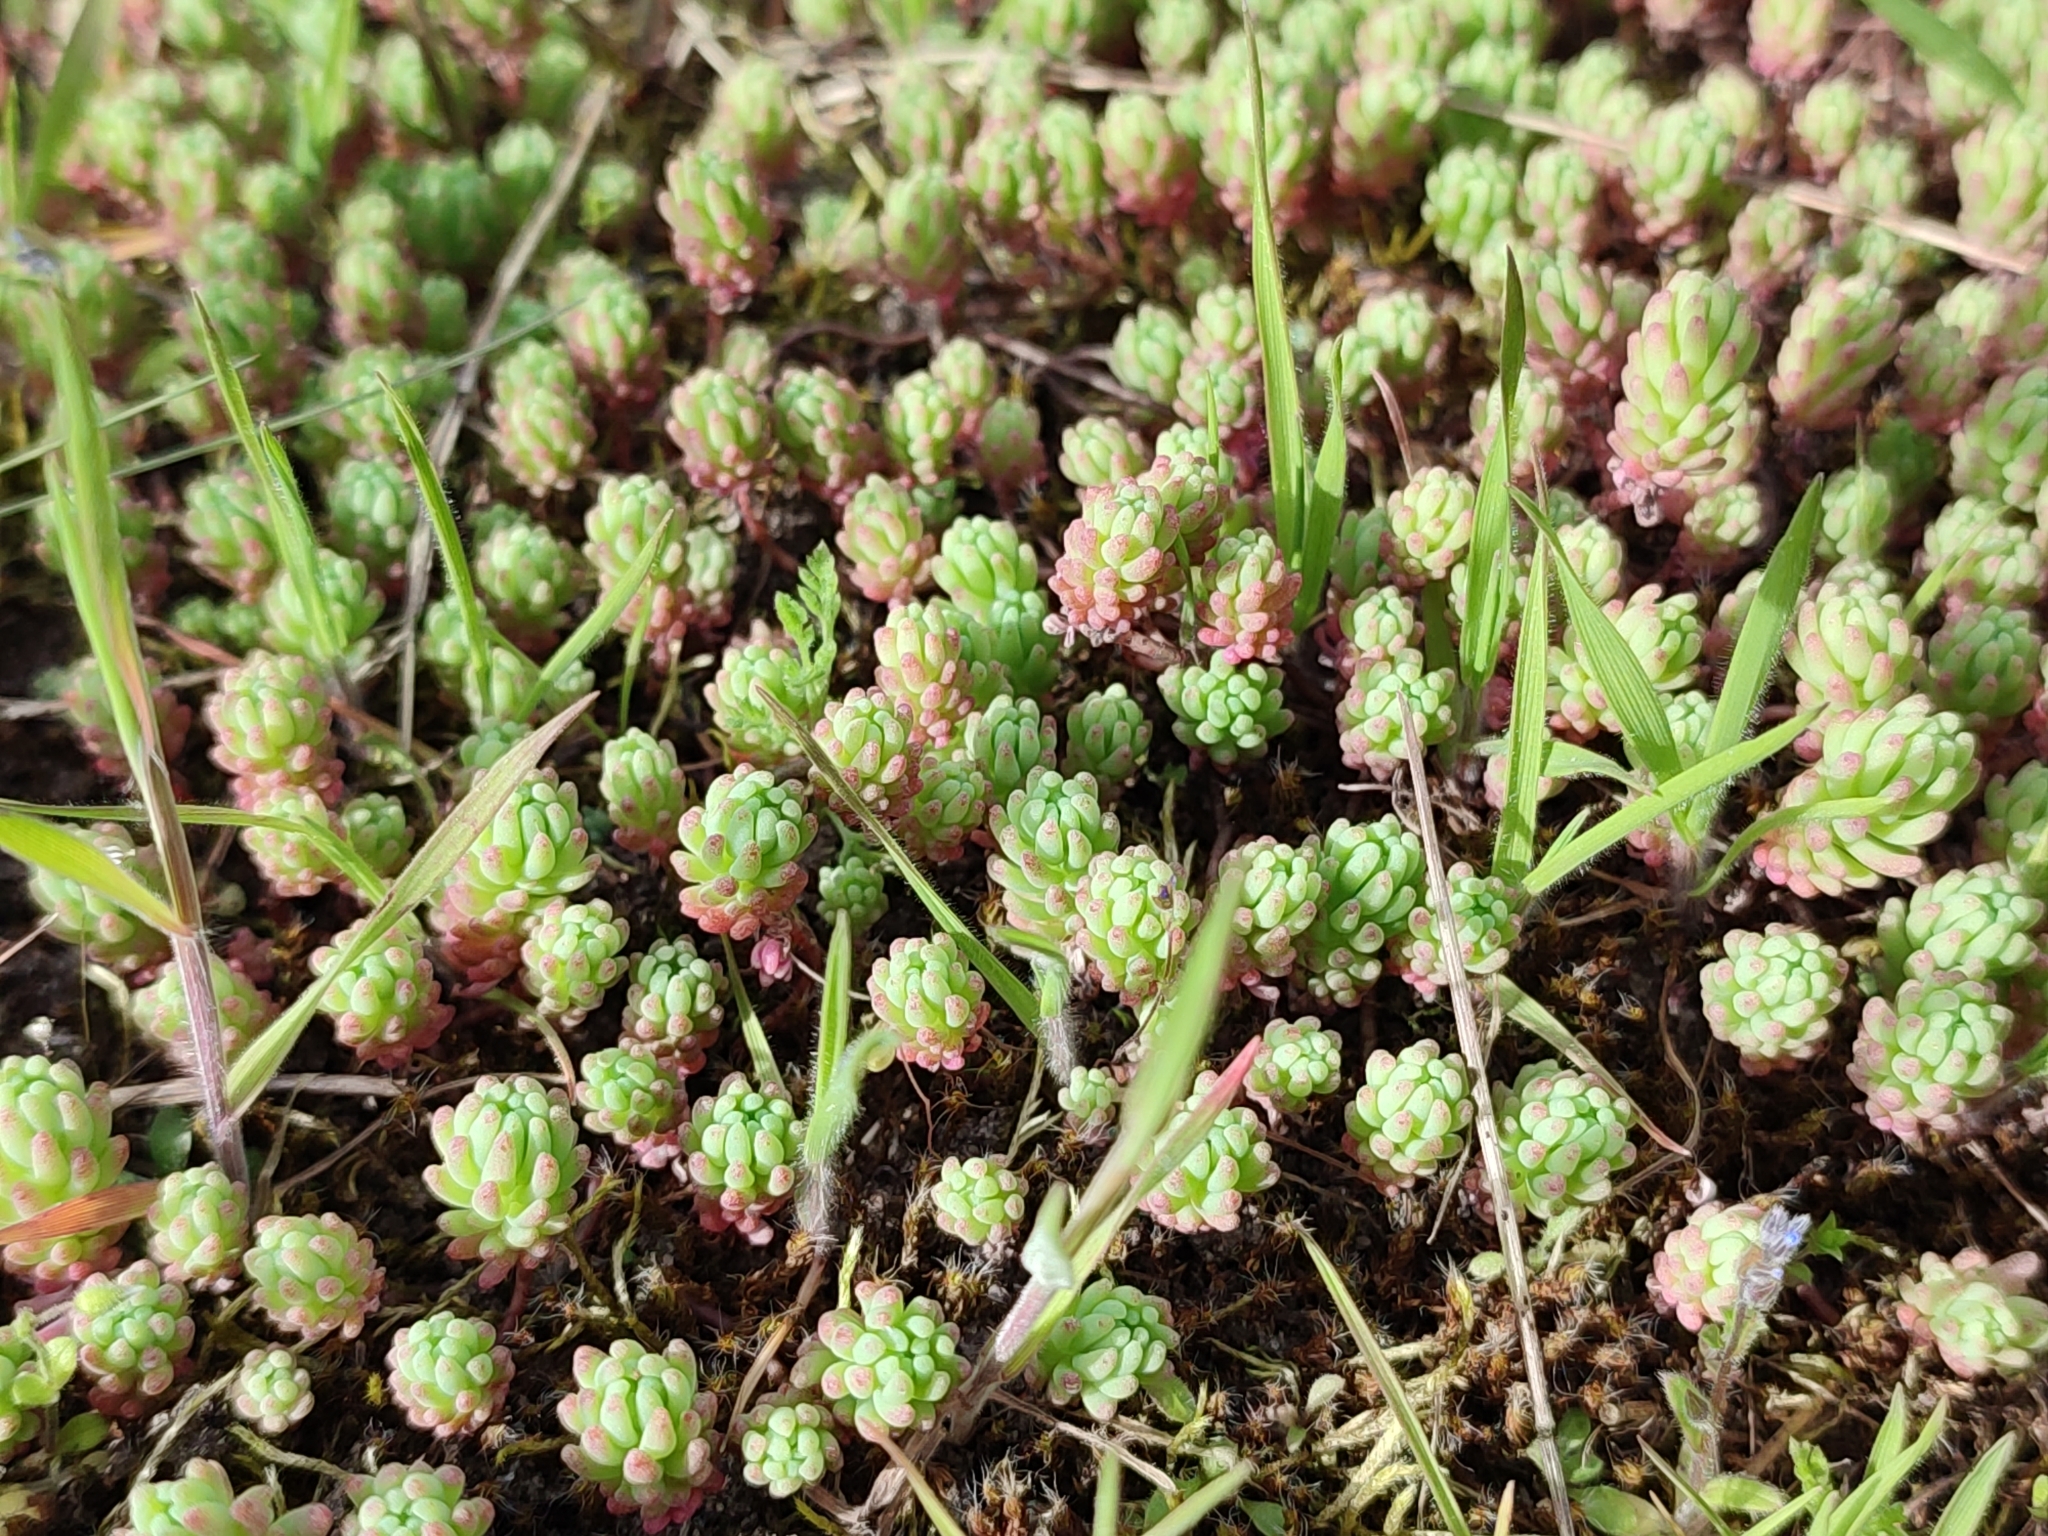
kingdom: Plantae
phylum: Tracheophyta
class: Magnoliopsida
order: Saxifragales
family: Crassulaceae
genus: Sedum
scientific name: Sedum pallidum
